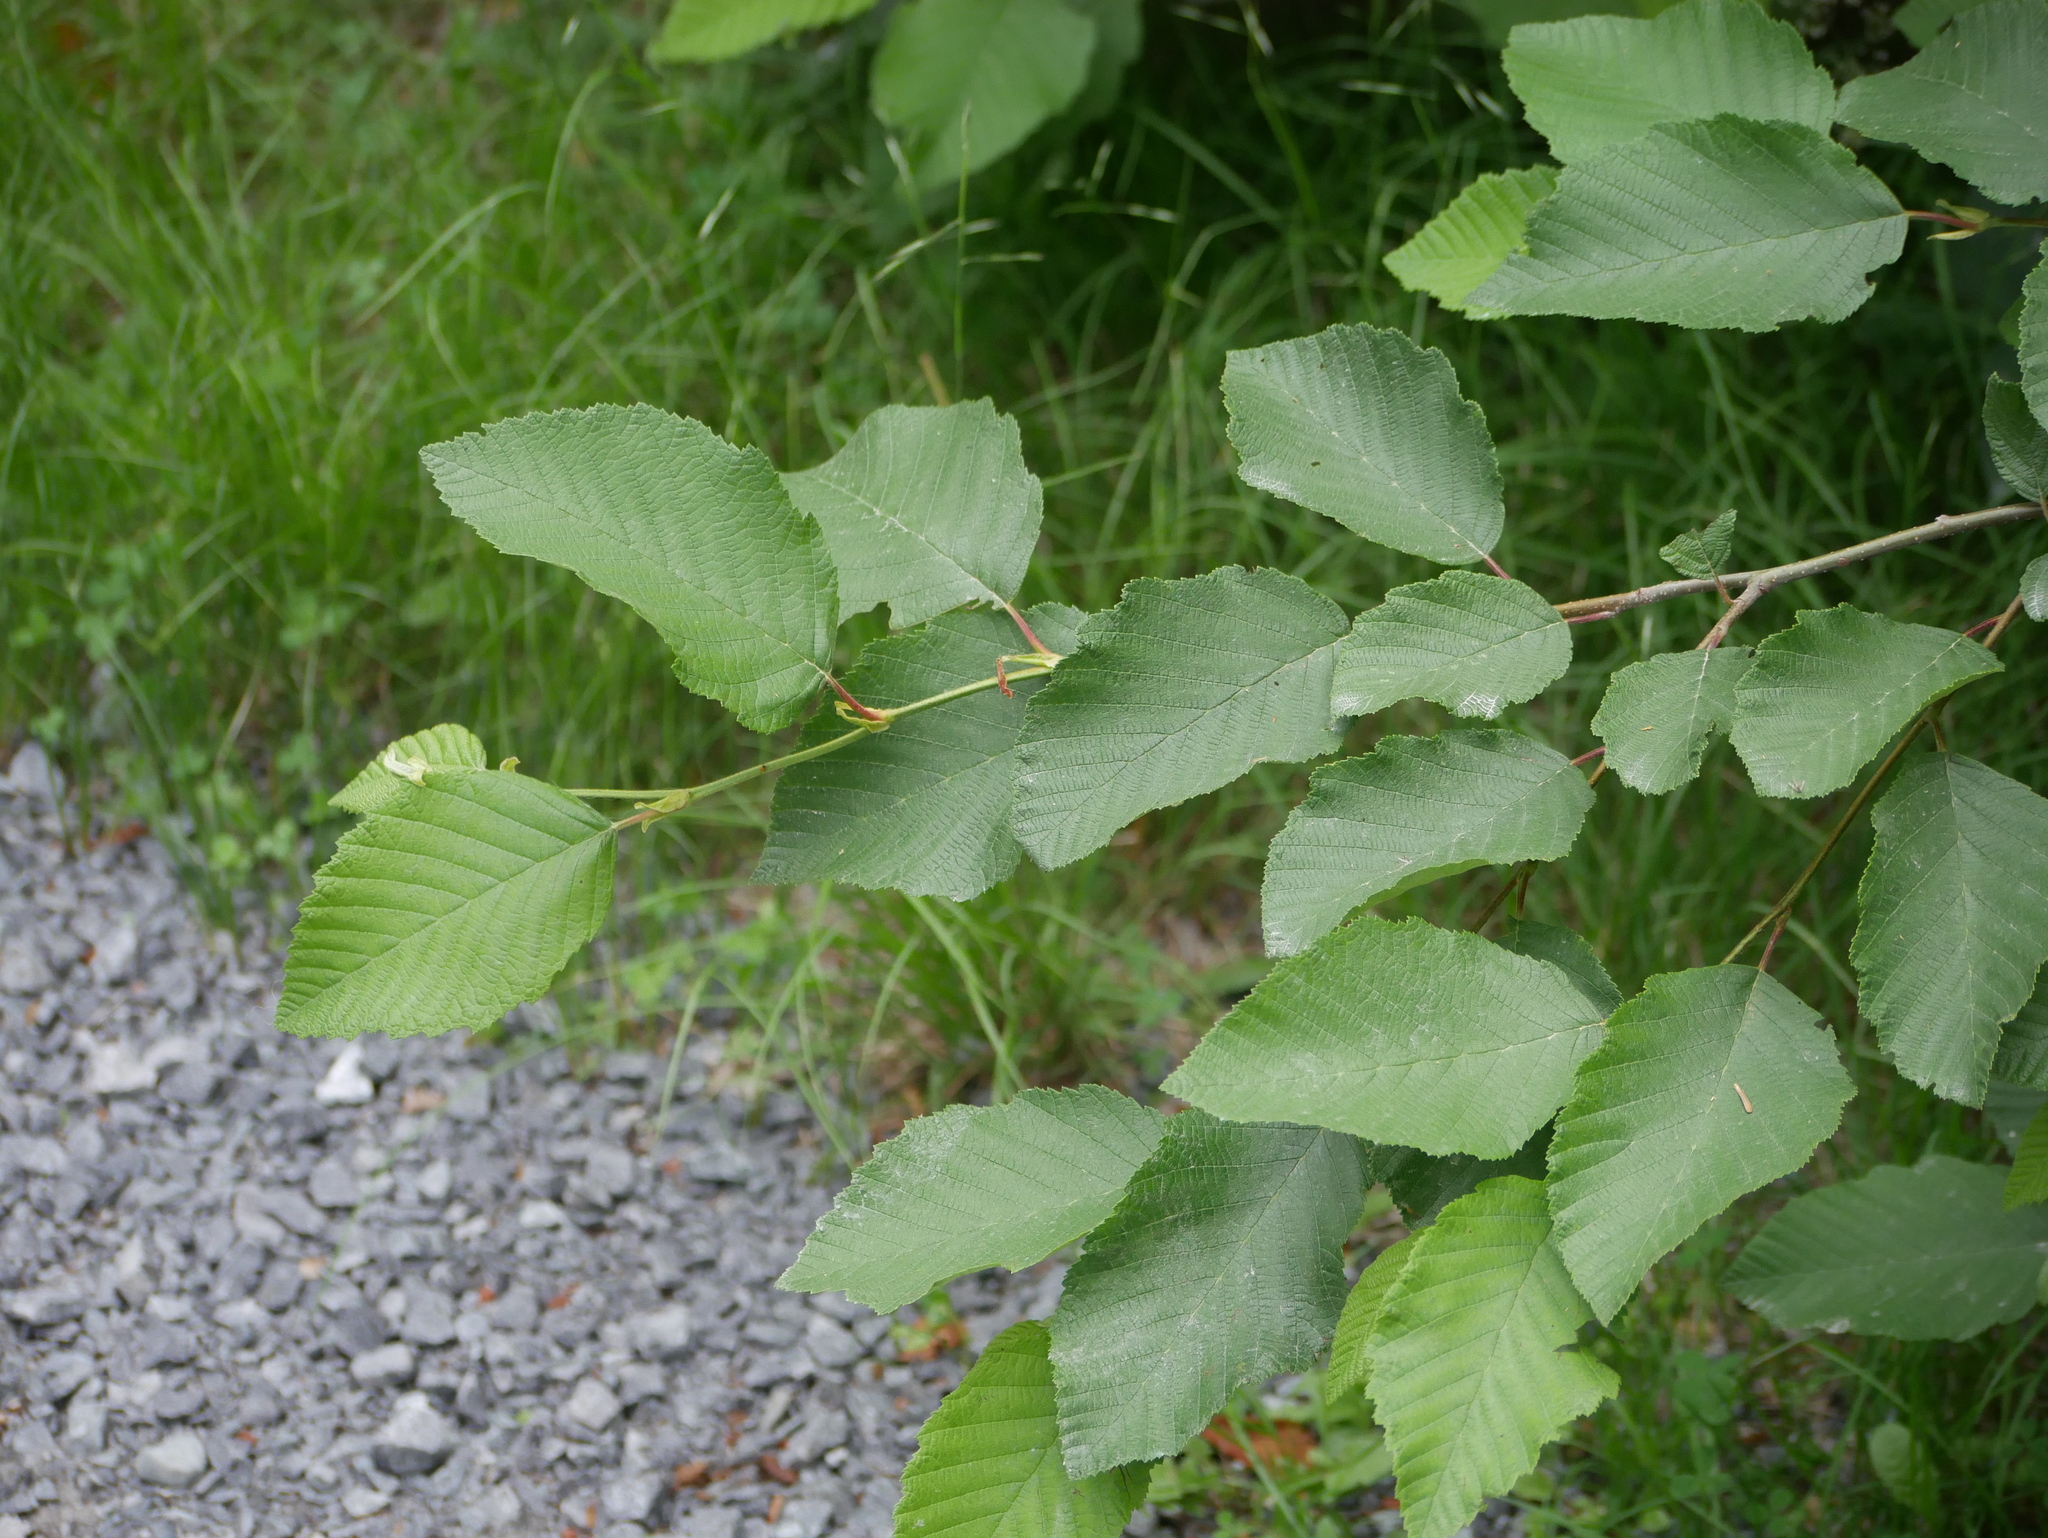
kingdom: Plantae
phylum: Tracheophyta
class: Magnoliopsida
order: Fagales
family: Betulaceae
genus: Alnus
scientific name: Alnus incana
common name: Grey alder
